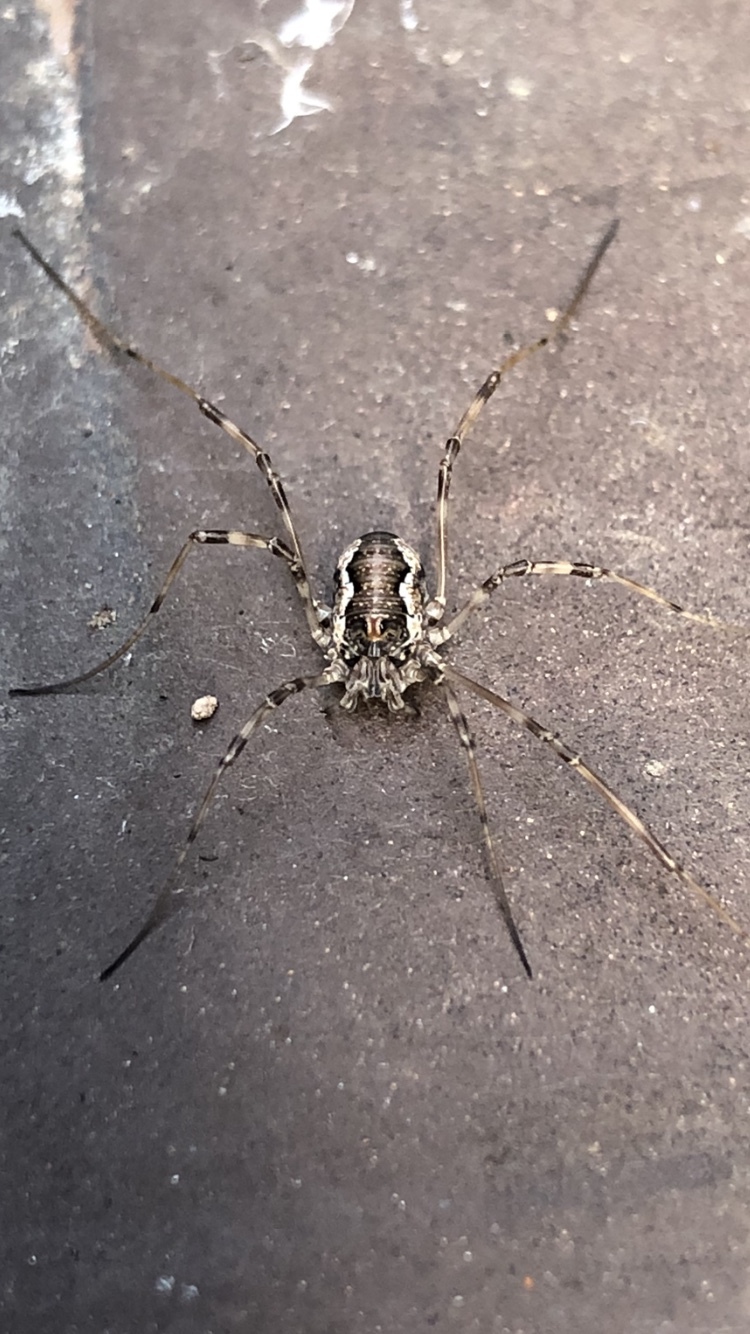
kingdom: Animalia
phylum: Arthropoda
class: Arachnida
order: Opiliones
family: Phalangiidae
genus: Dasylobus
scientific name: Dasylobus graniferus
